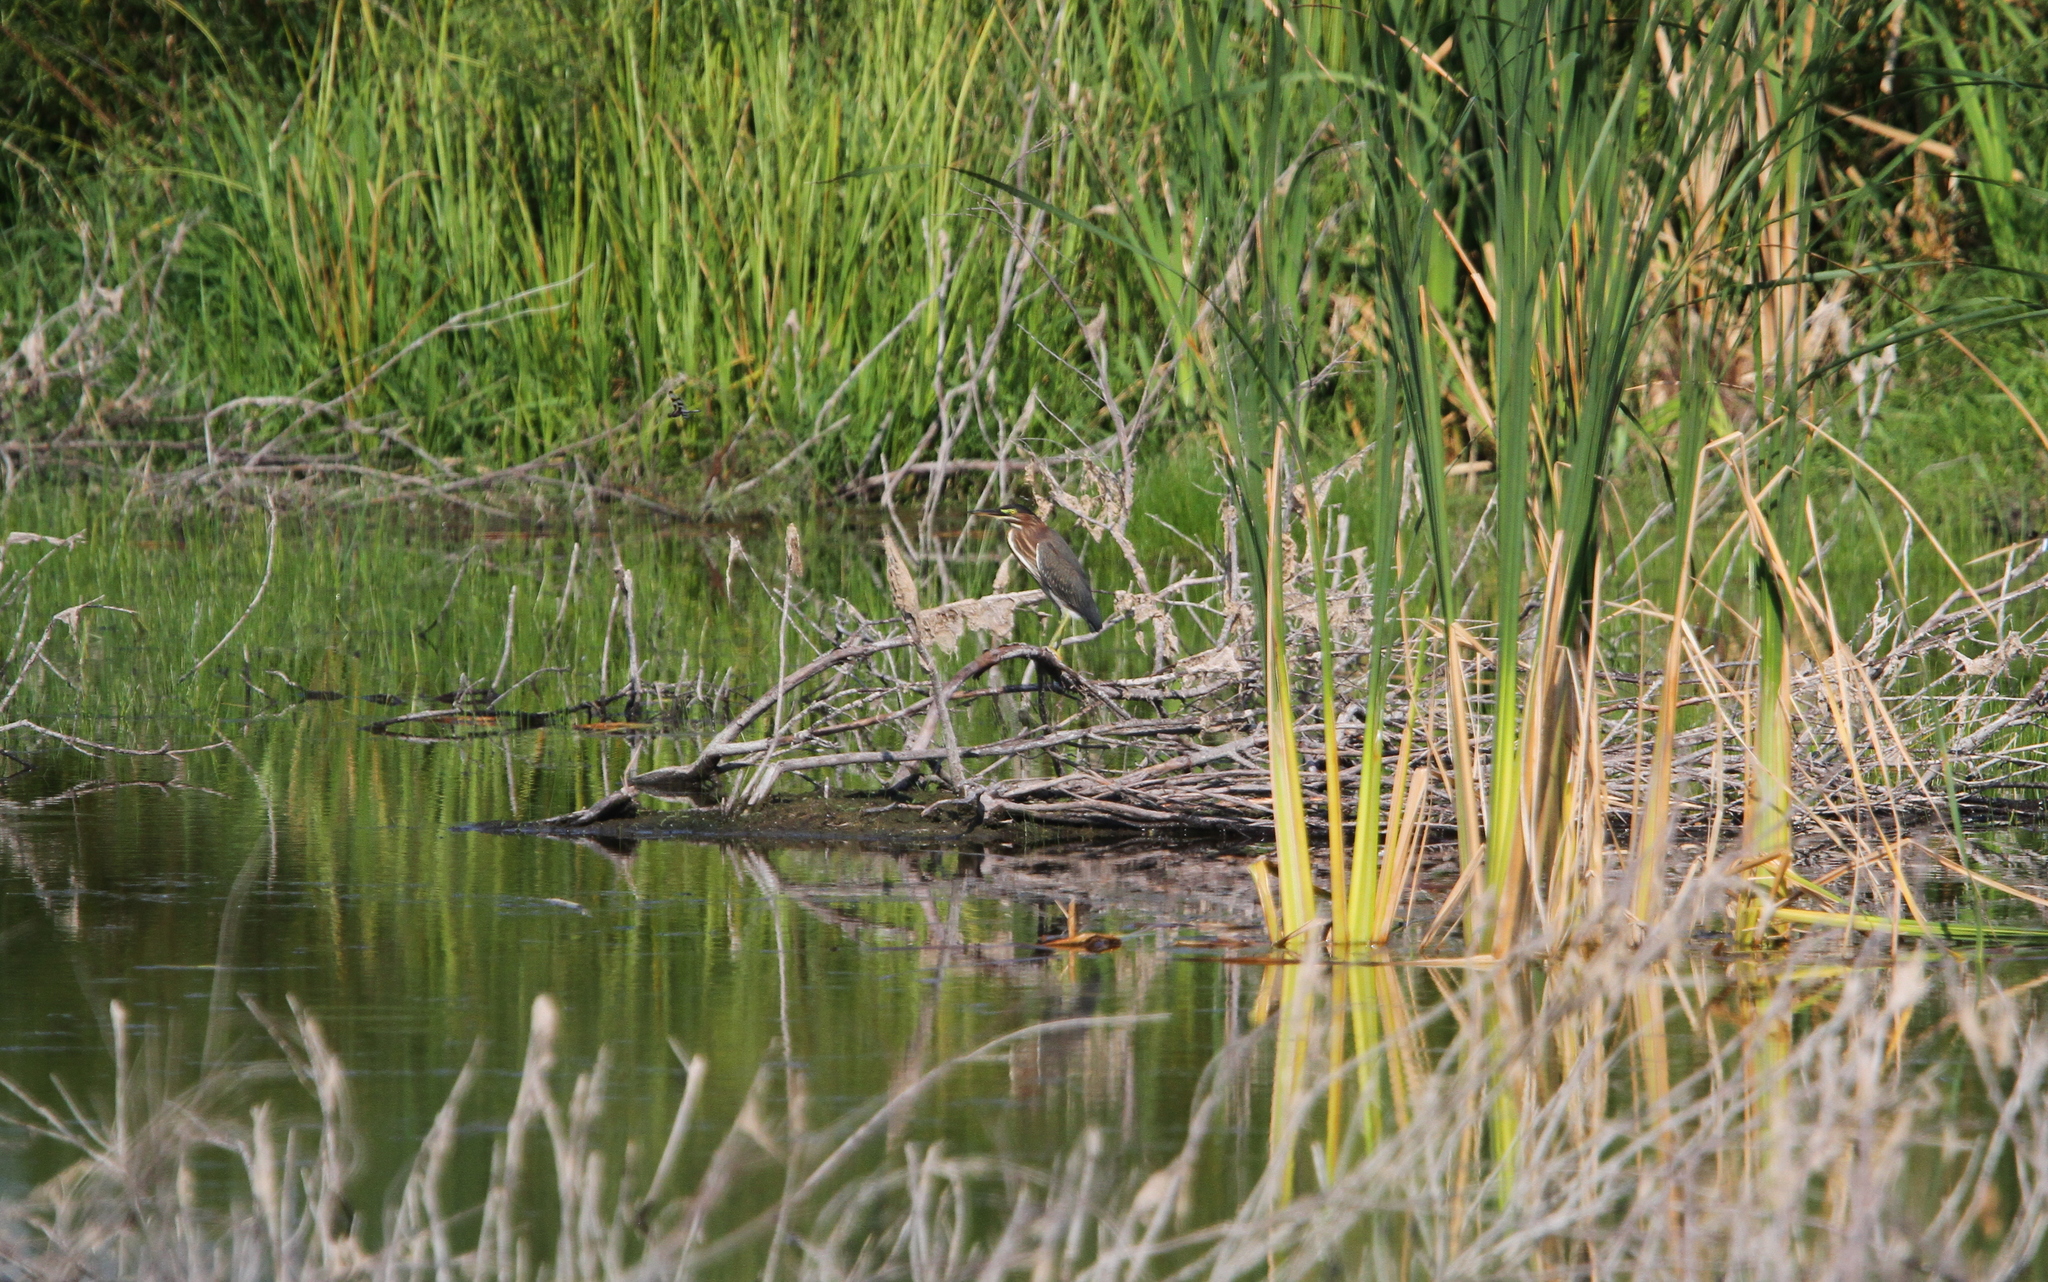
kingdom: Animalia
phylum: Chordata
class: Aves
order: Pelecaniformes
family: Ardeidae
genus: Butorides
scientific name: Butorides virescens
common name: Green heron
